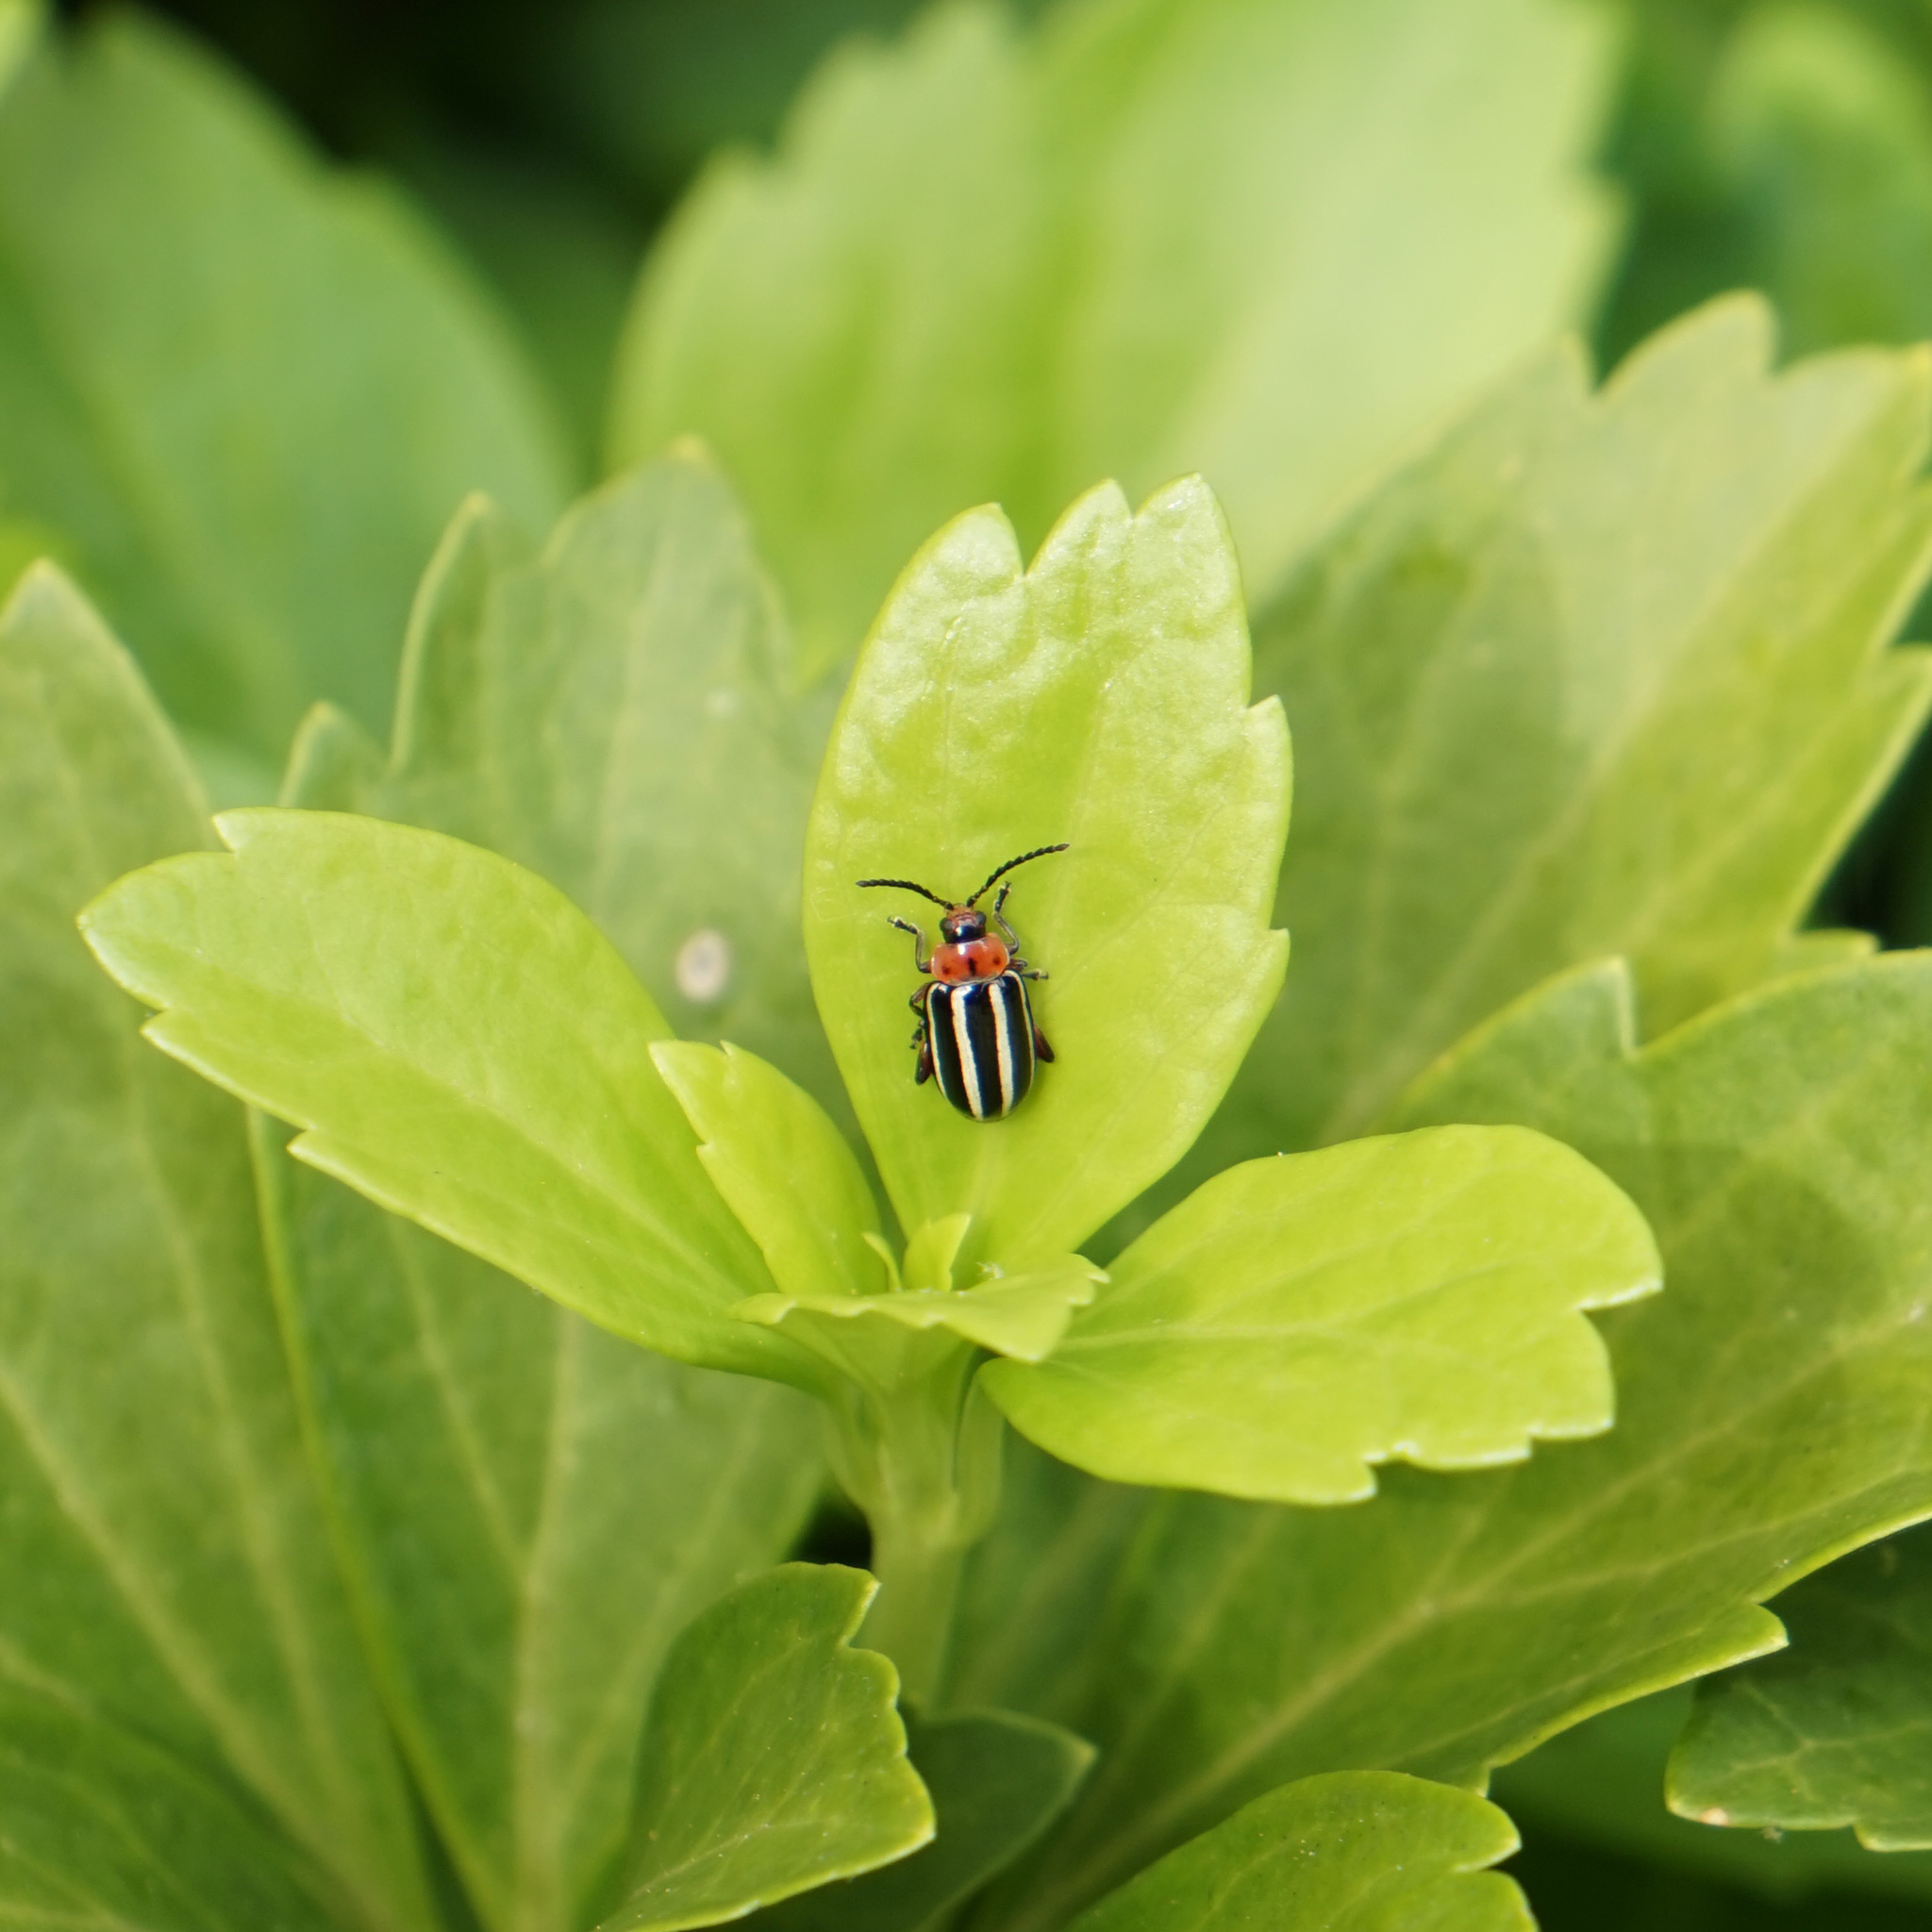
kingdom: Animalia
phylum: Arthropoda
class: Insecta
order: Coleoptera
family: Chrysomelidae
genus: Disonycha
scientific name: Disonycha glabrata
